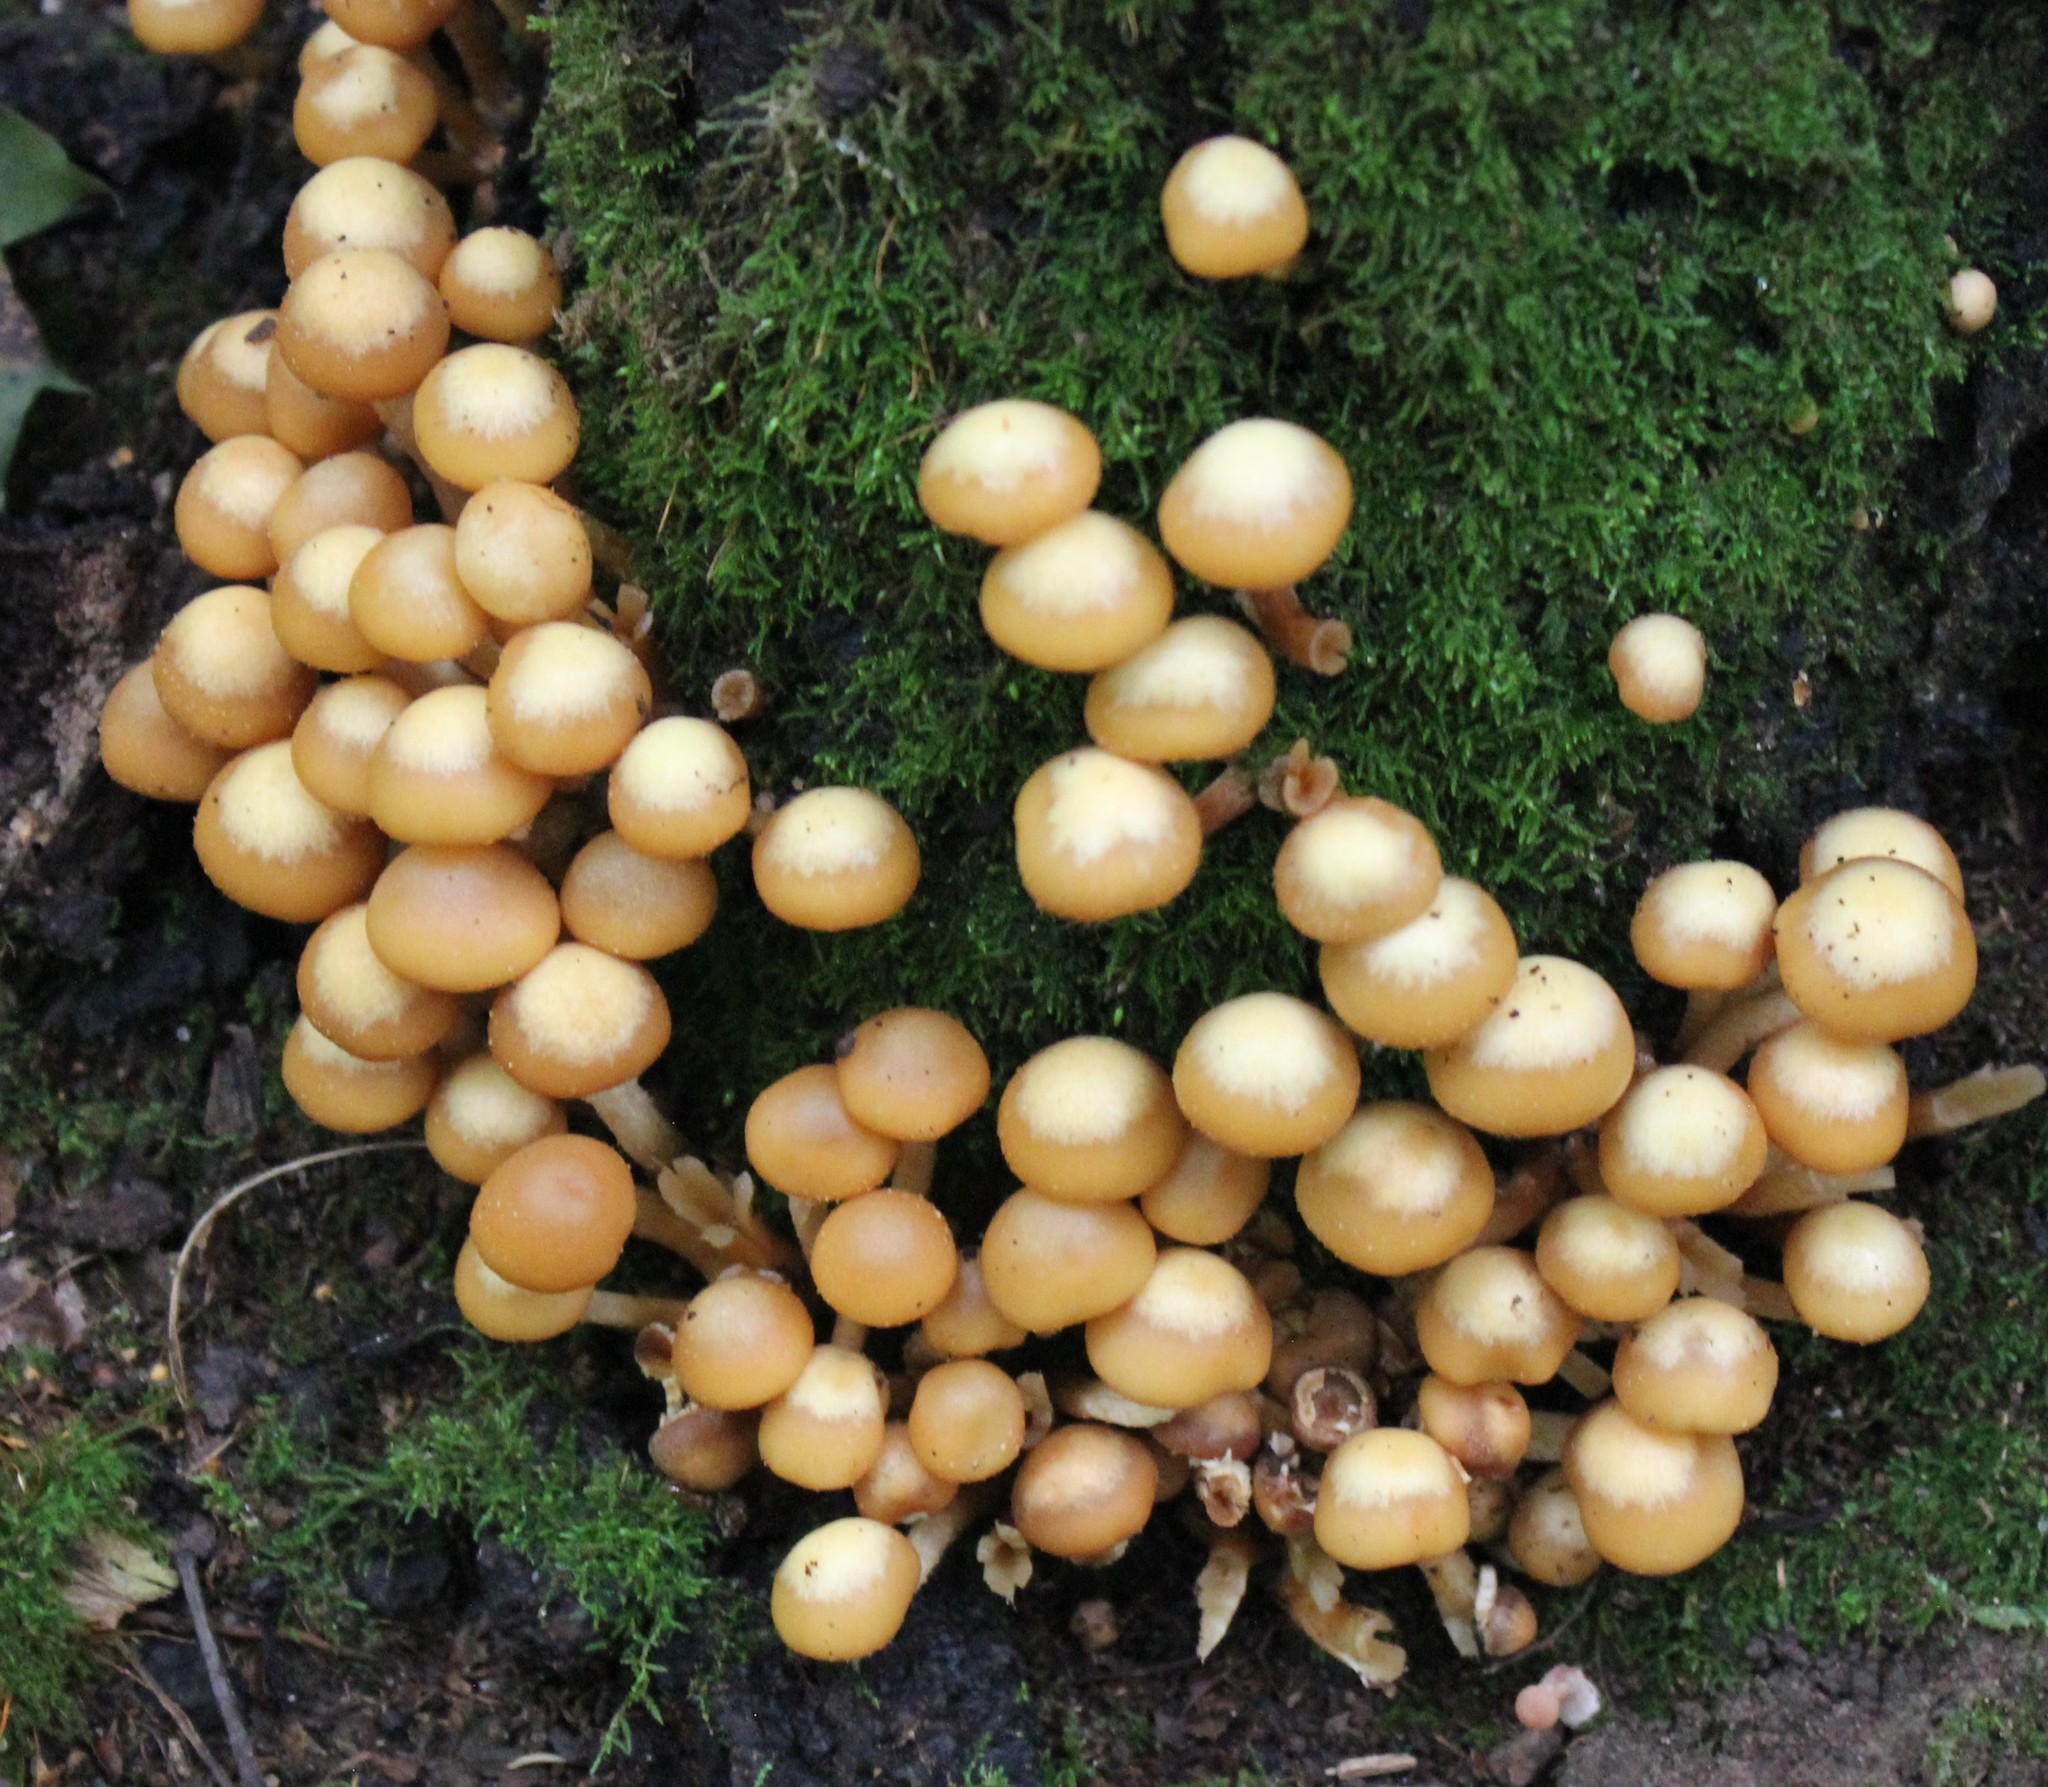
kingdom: Fungi
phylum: Basidiomycota
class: Agaricomycetes
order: Agaricales
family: Strophariaceae
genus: Kuehneromyces
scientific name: Kuehneromyces mutabilis
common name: Sheathed woodtuft
